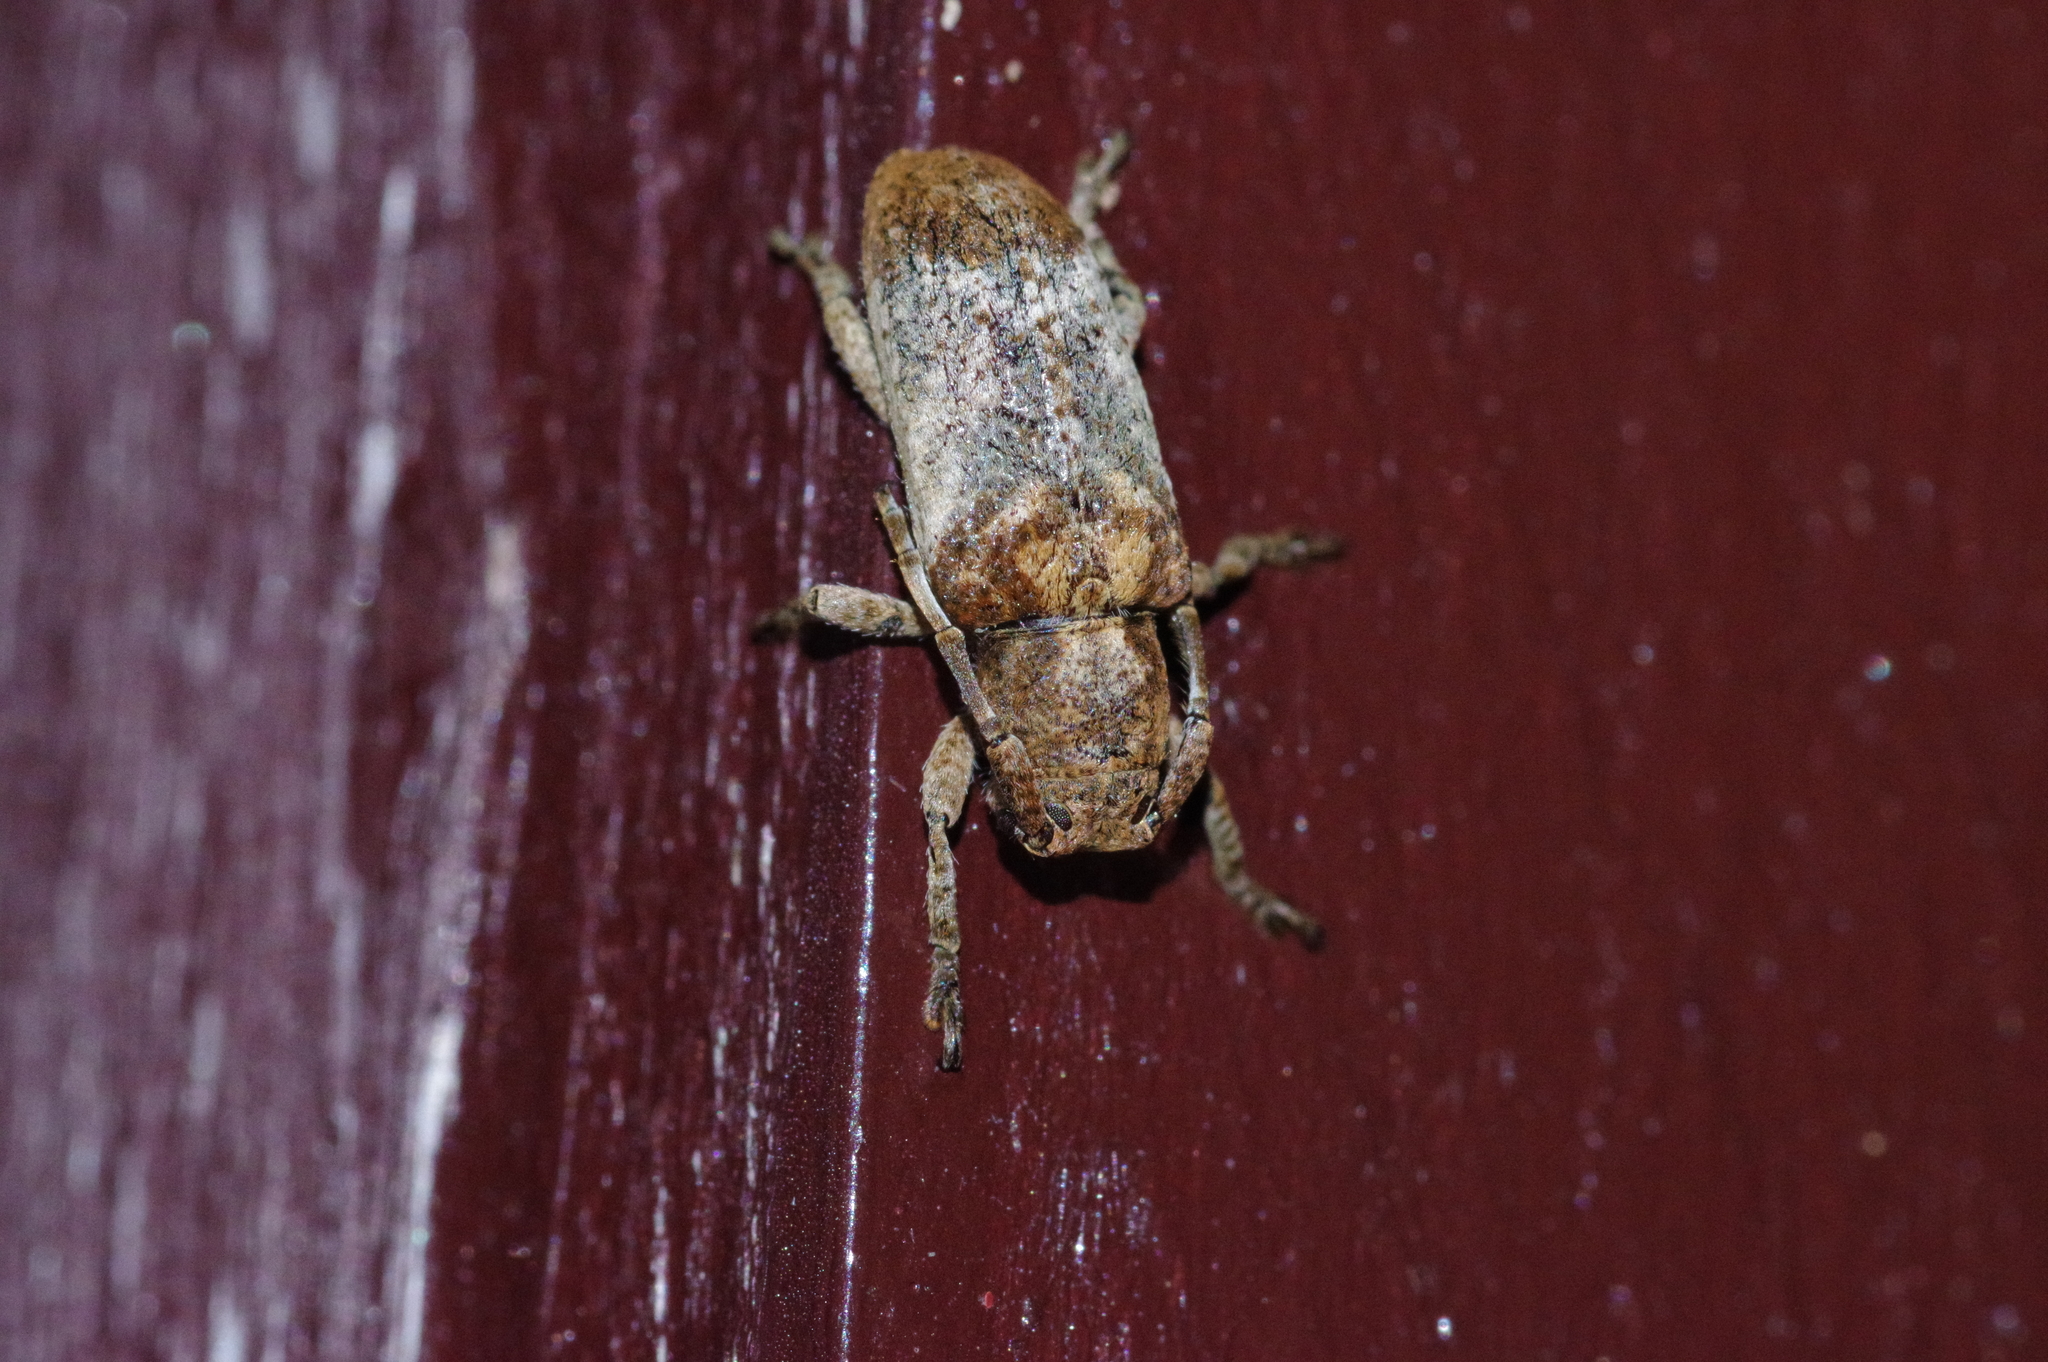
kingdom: Animalia
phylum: Arthropoda
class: Insecta
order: Coleoptera
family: Cerambycidae
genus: Pterolophia
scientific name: Pterolophia annulata
